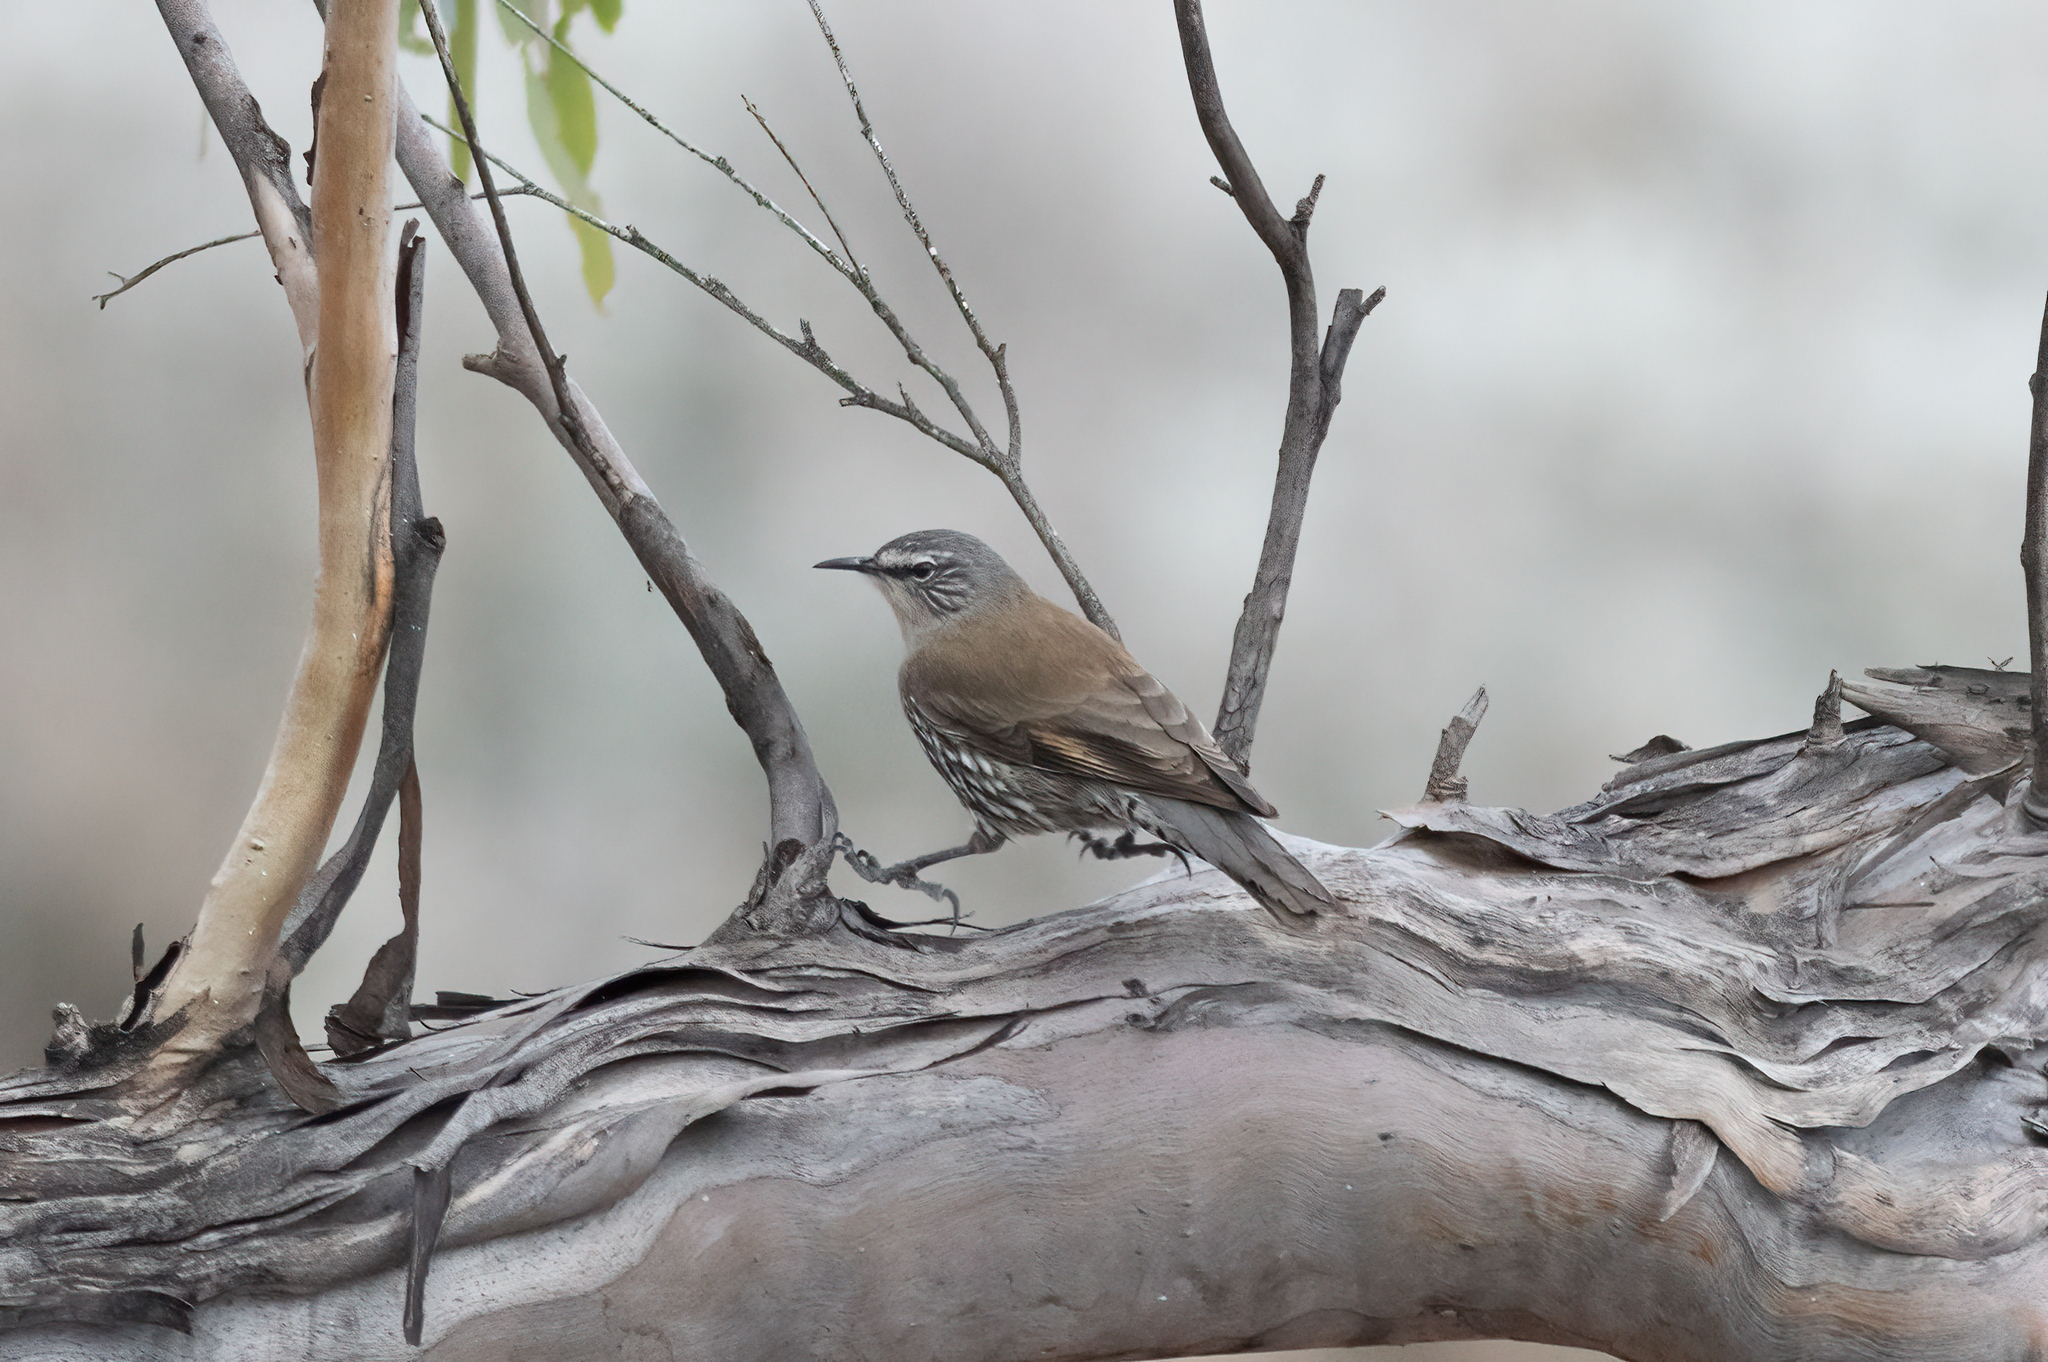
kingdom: Animalia
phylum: Chordata
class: Aves
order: Passeriformes
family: Climacteridae
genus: Climacteris
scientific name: Climacteris affinis
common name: White-browed treecreeper
